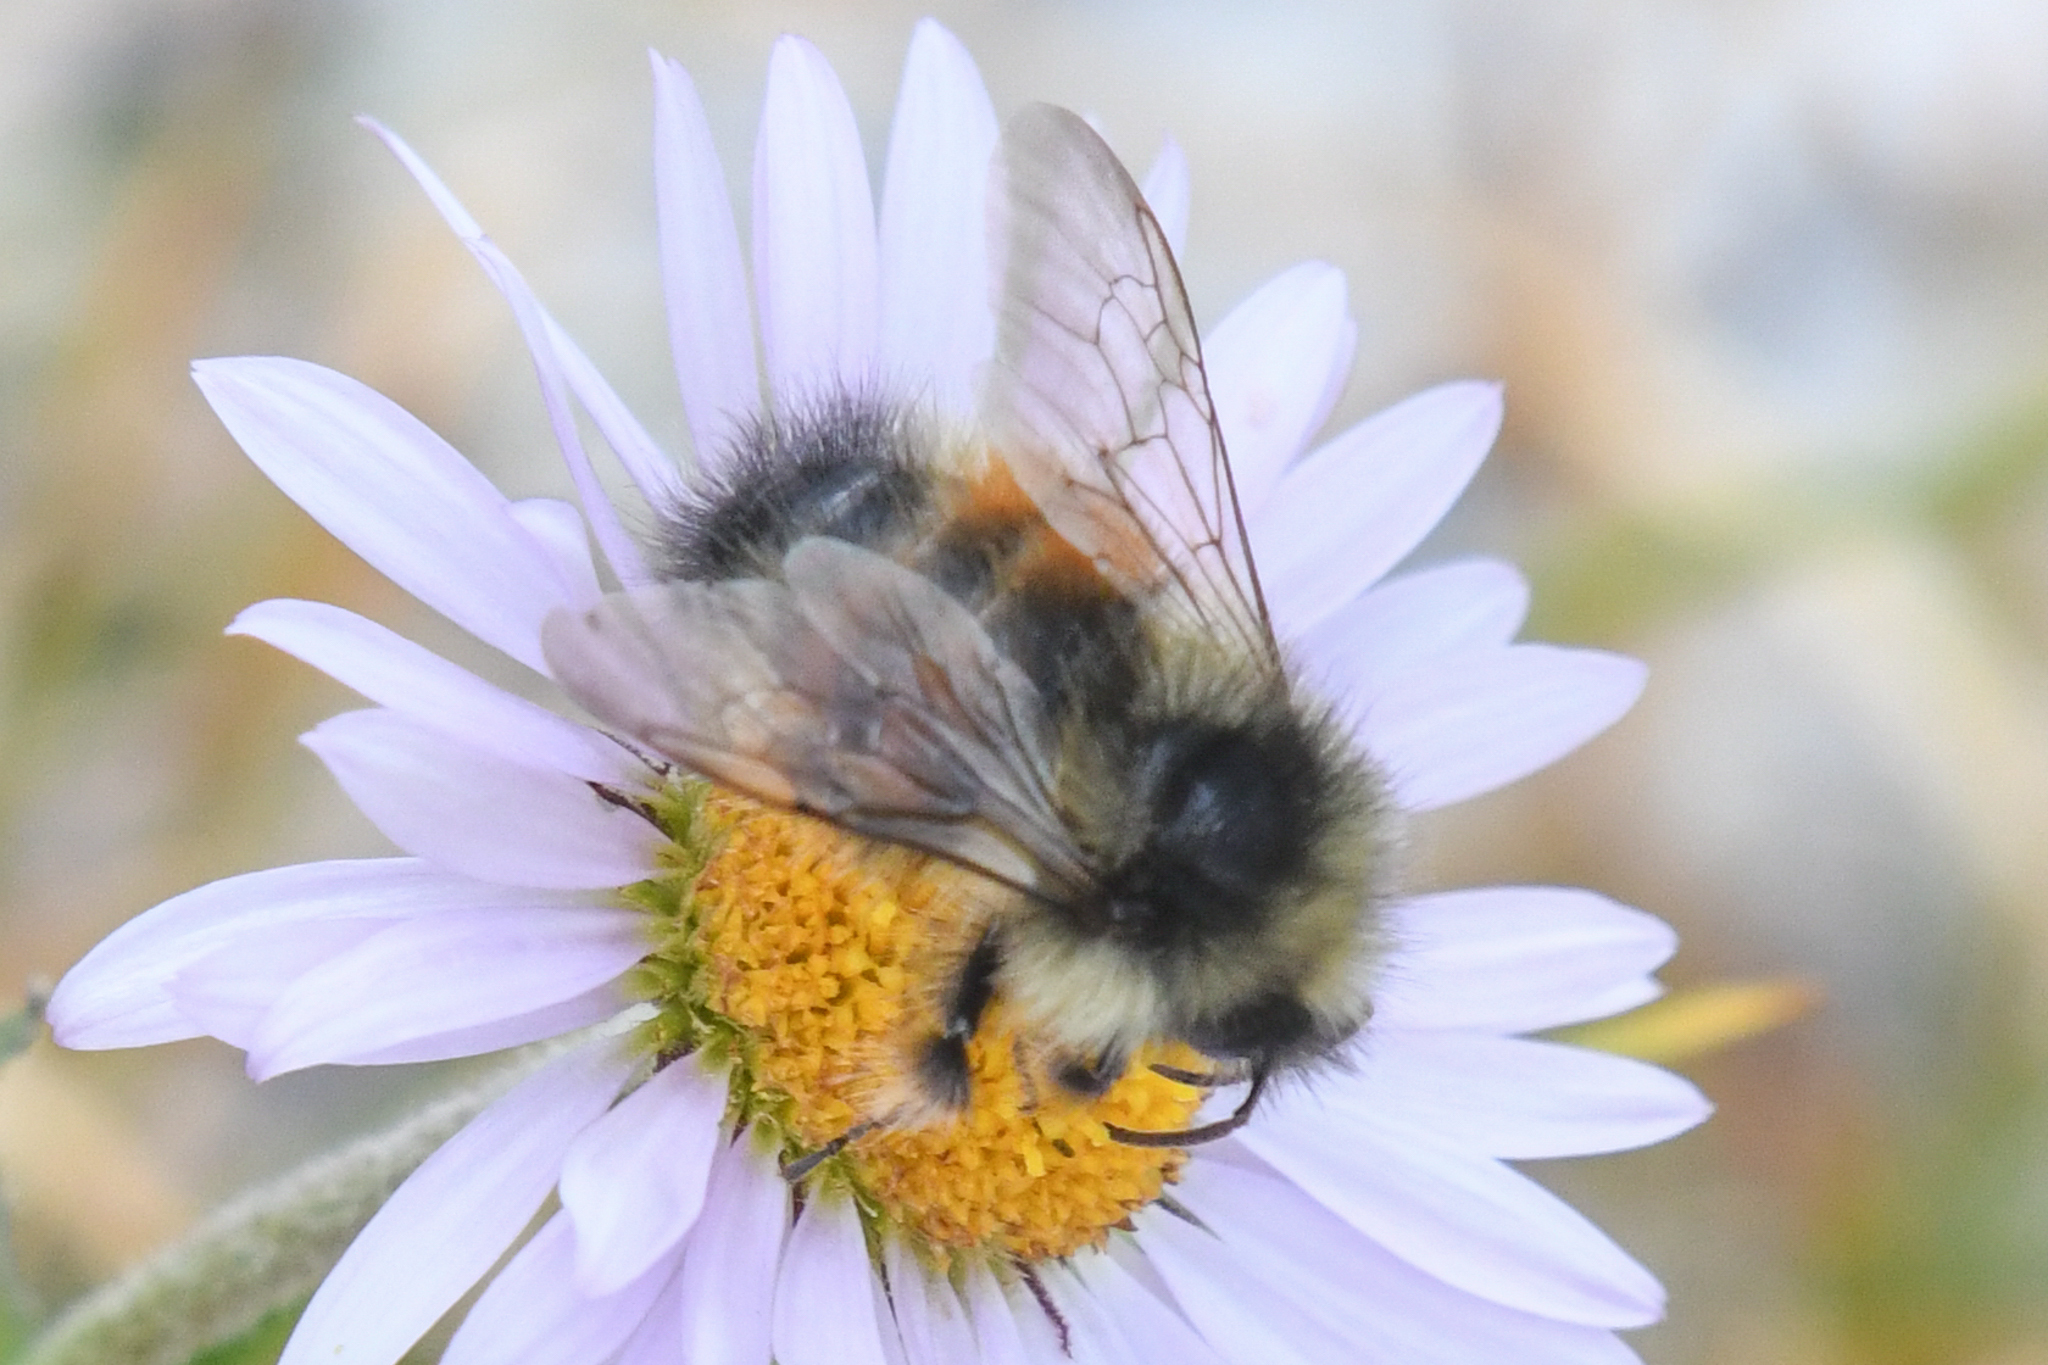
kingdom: Animalia
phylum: Arthropoda
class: Insecta
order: Hymenoptera
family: Apidae
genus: Bombus
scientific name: Bombus sylvicola
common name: Forest bumble bee
